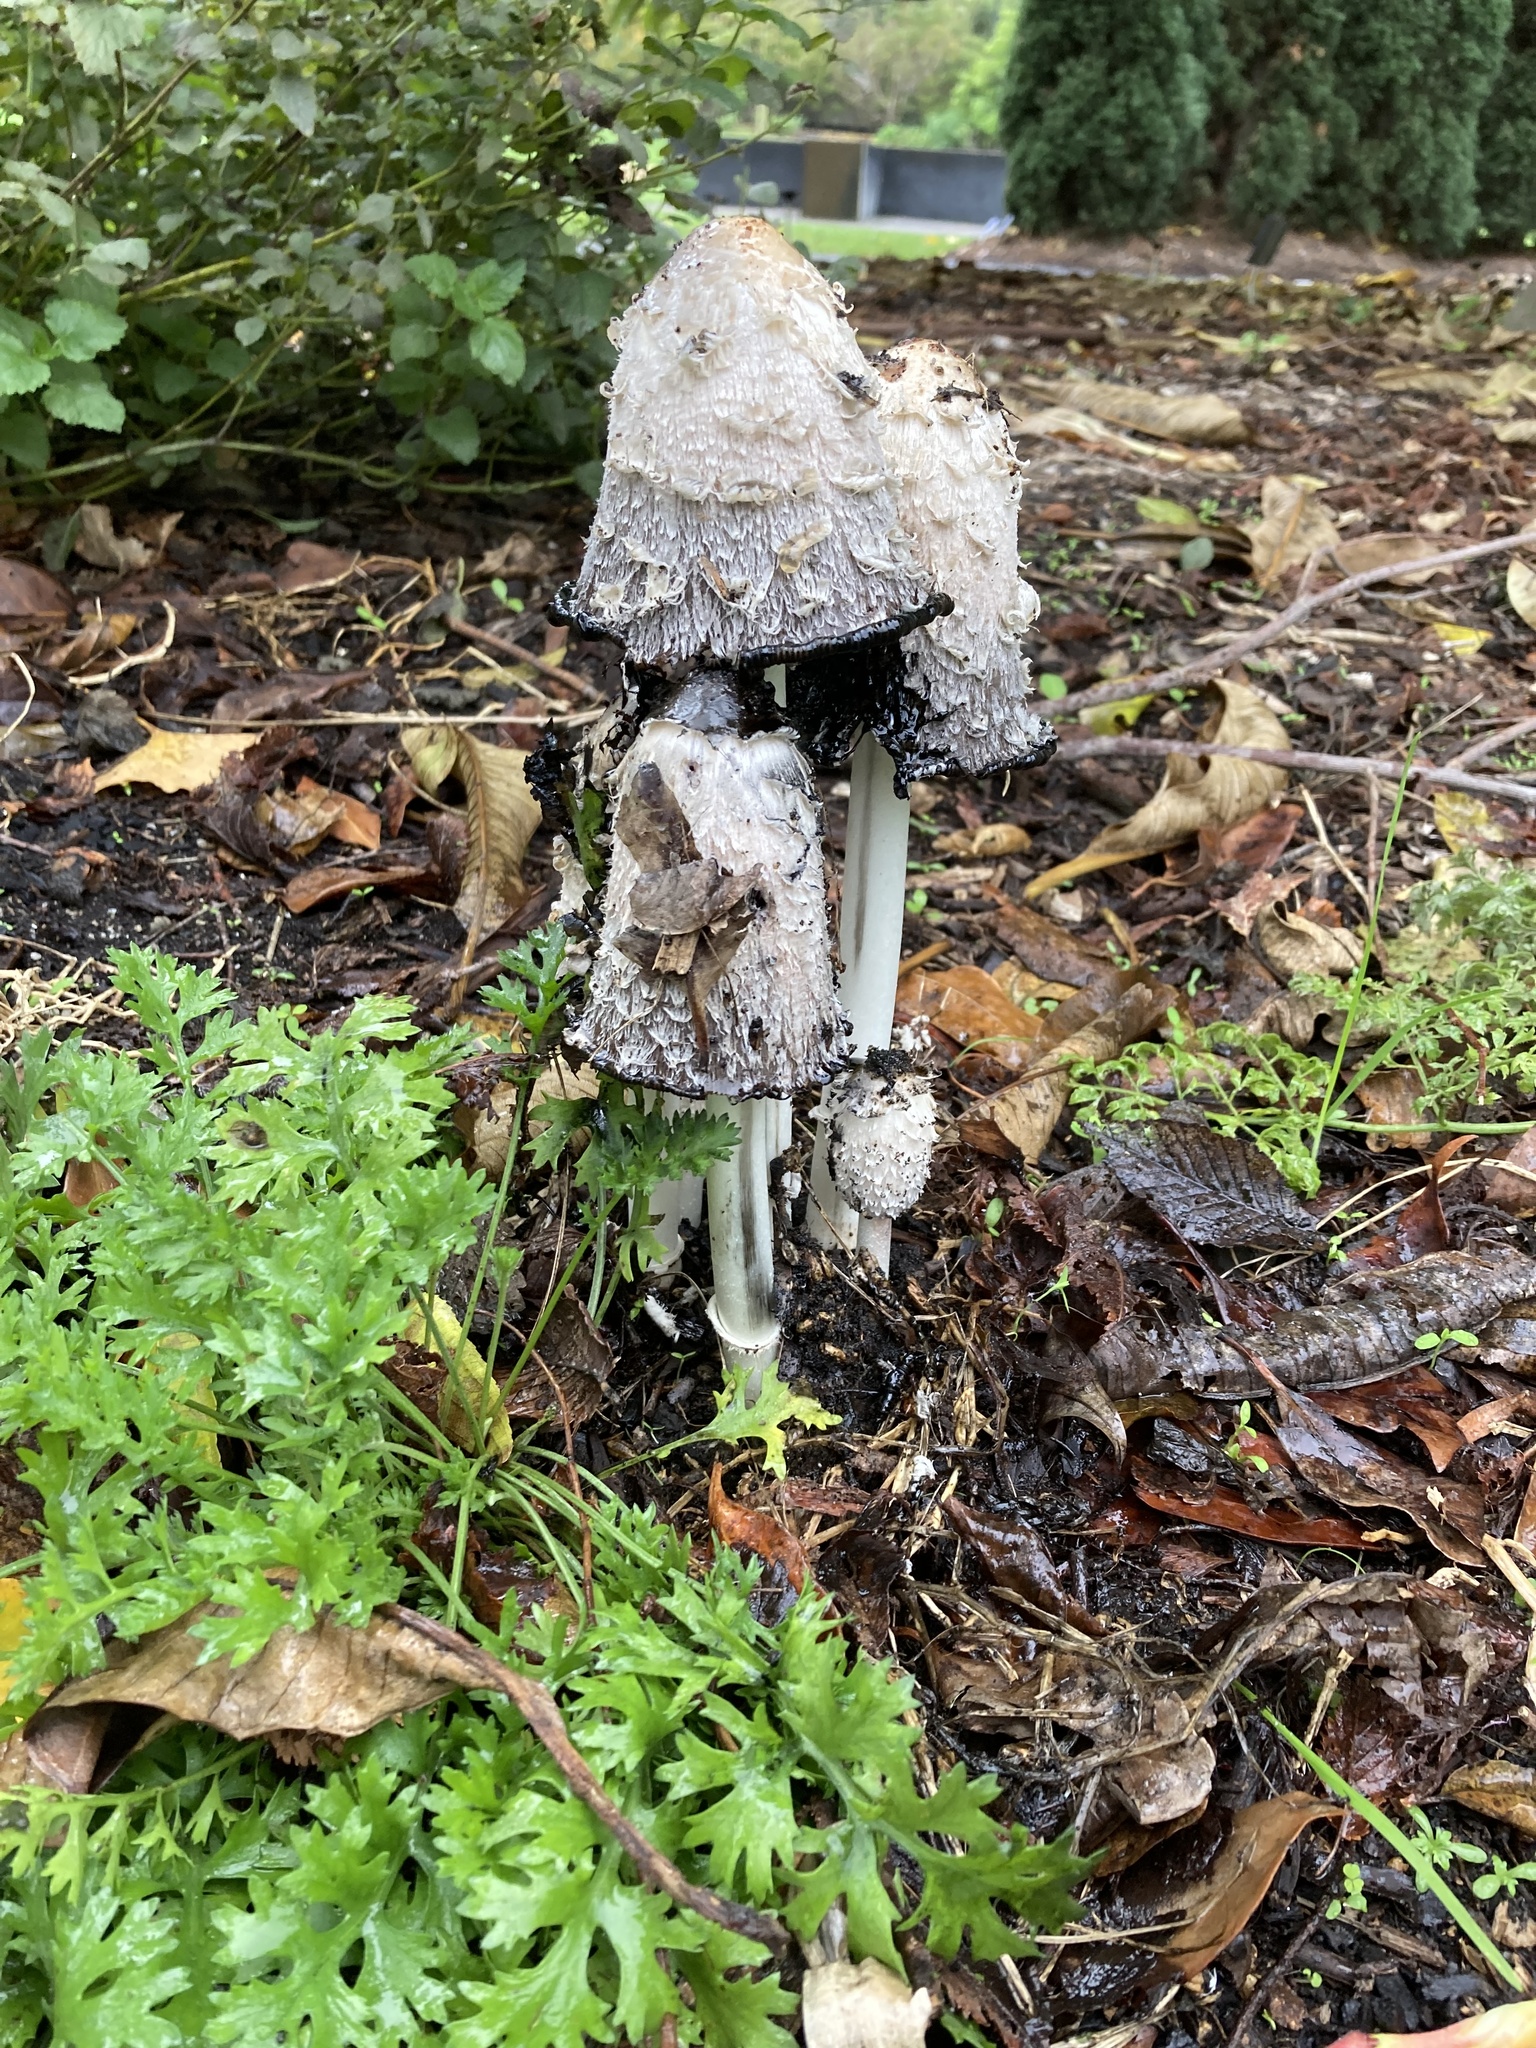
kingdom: Fungi
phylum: Basidiomycota
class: Agaricomycetes
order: Agaricales
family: Agaricaceae
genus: Coprinus
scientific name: Coprinus comatus
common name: Lawyer's wig
